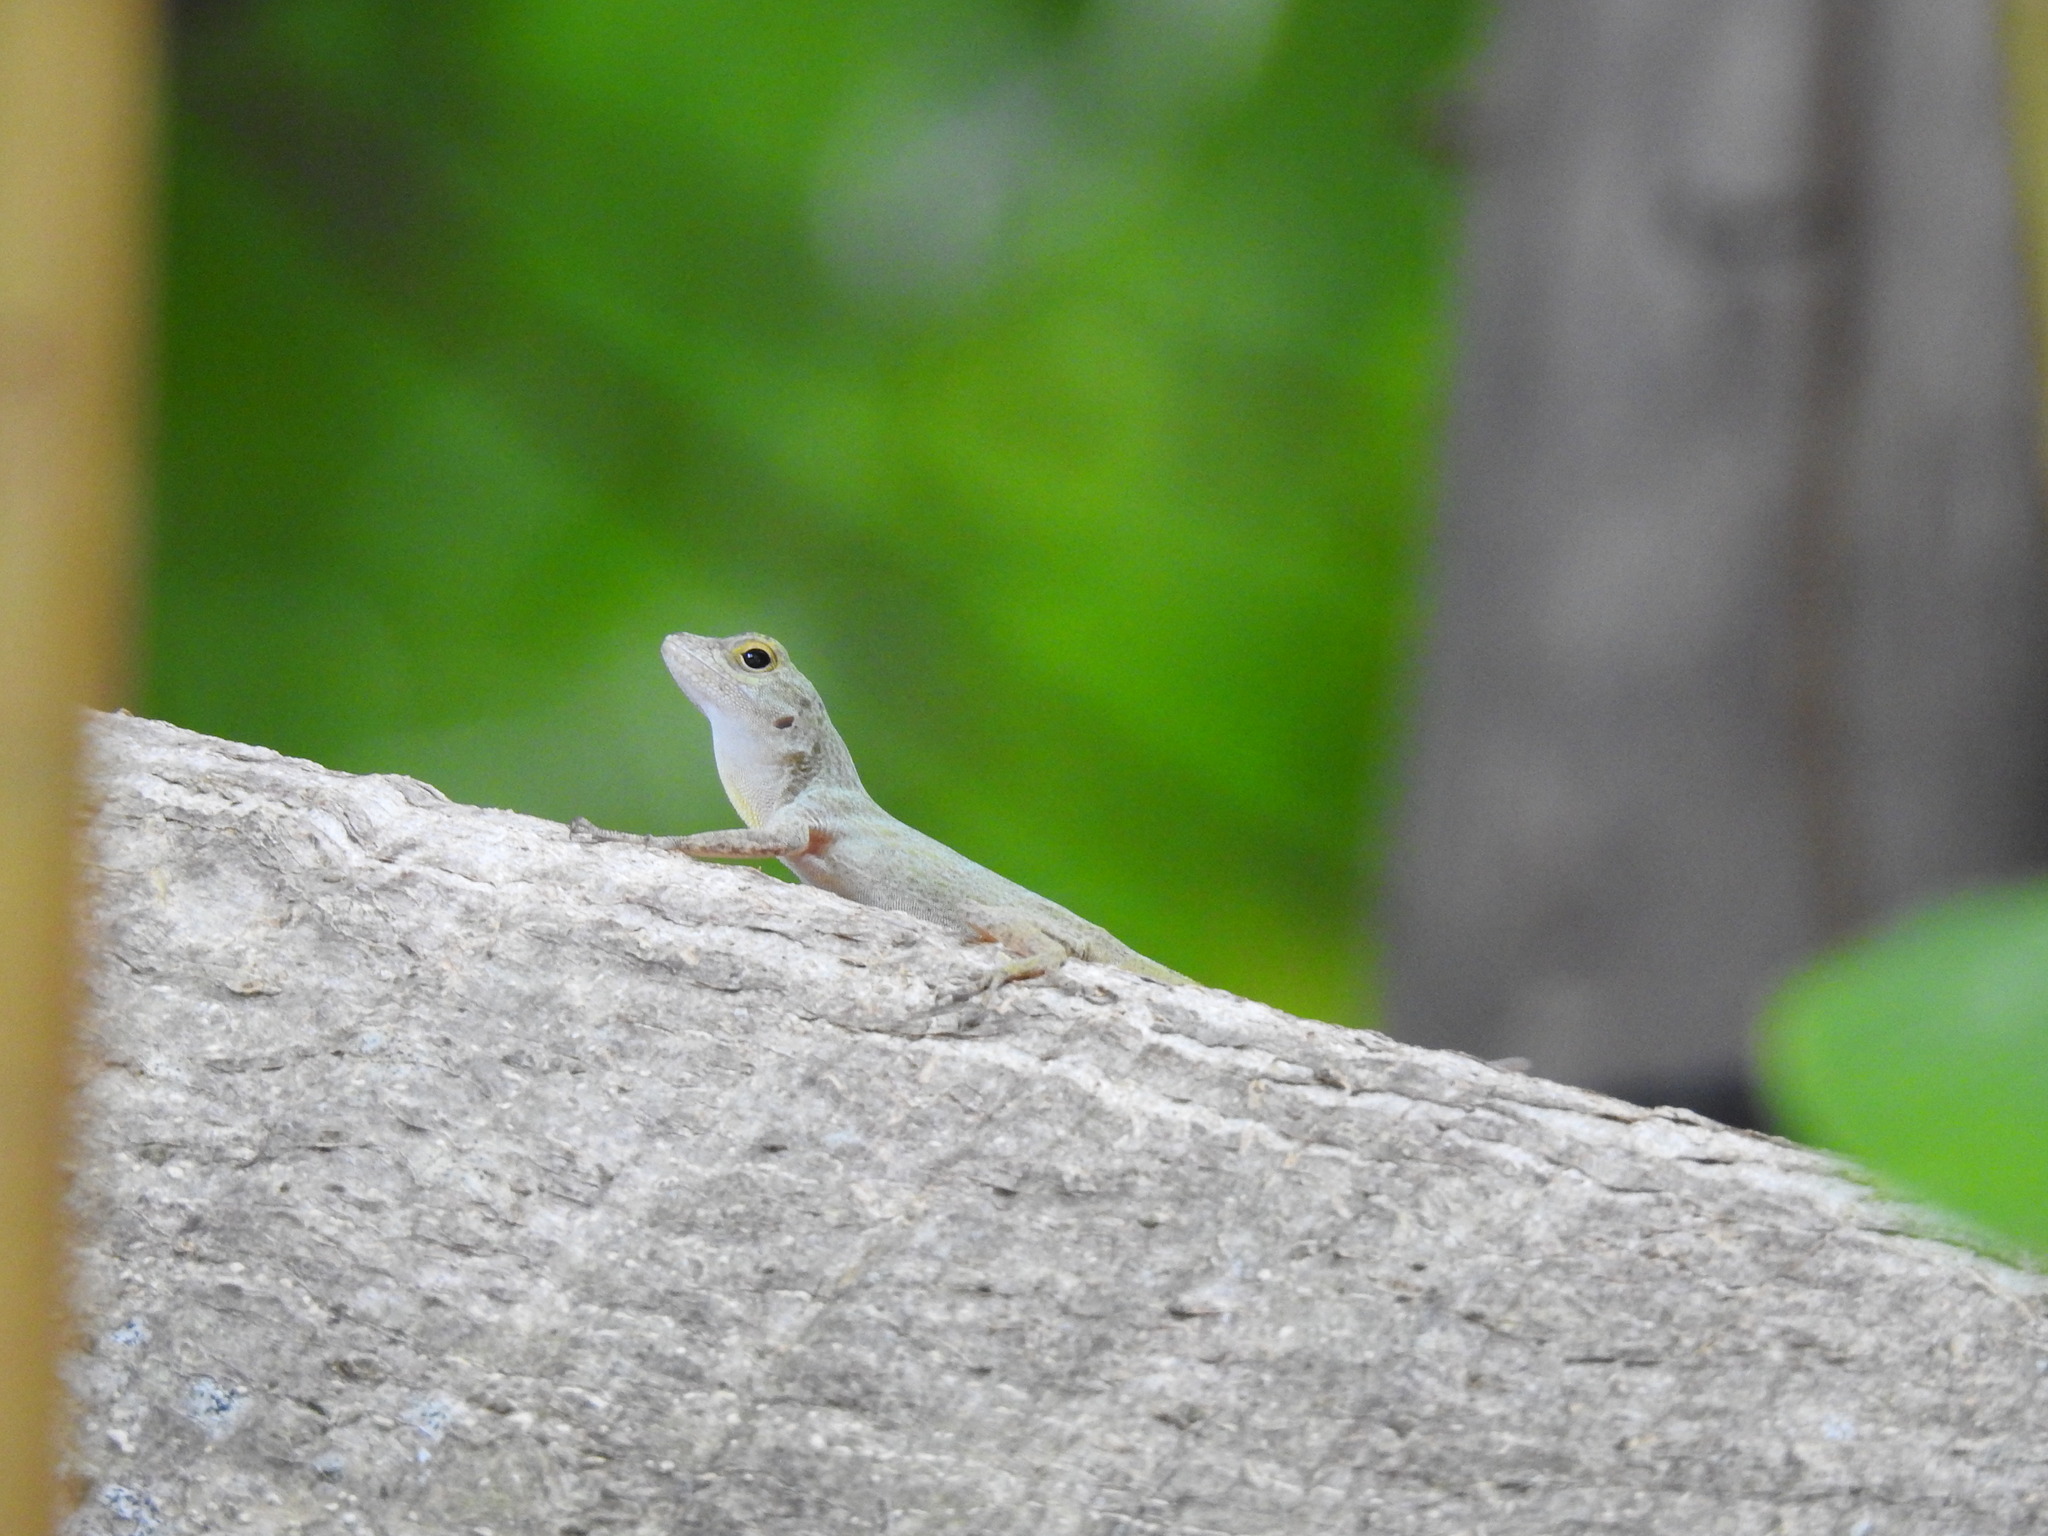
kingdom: Animalia
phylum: Chordata
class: Squamata
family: Dactyloidae
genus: Anolis
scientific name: Anolis distichus
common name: Bark anole
